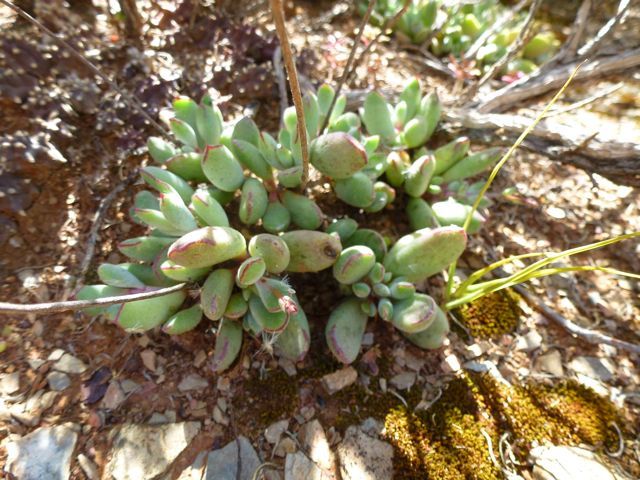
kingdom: Plantae
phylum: Tracheophyta
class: Magnoliopsida
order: Saxifragales
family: Crassulaceae
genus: Cotyledon
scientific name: Cotyledon papillaris
